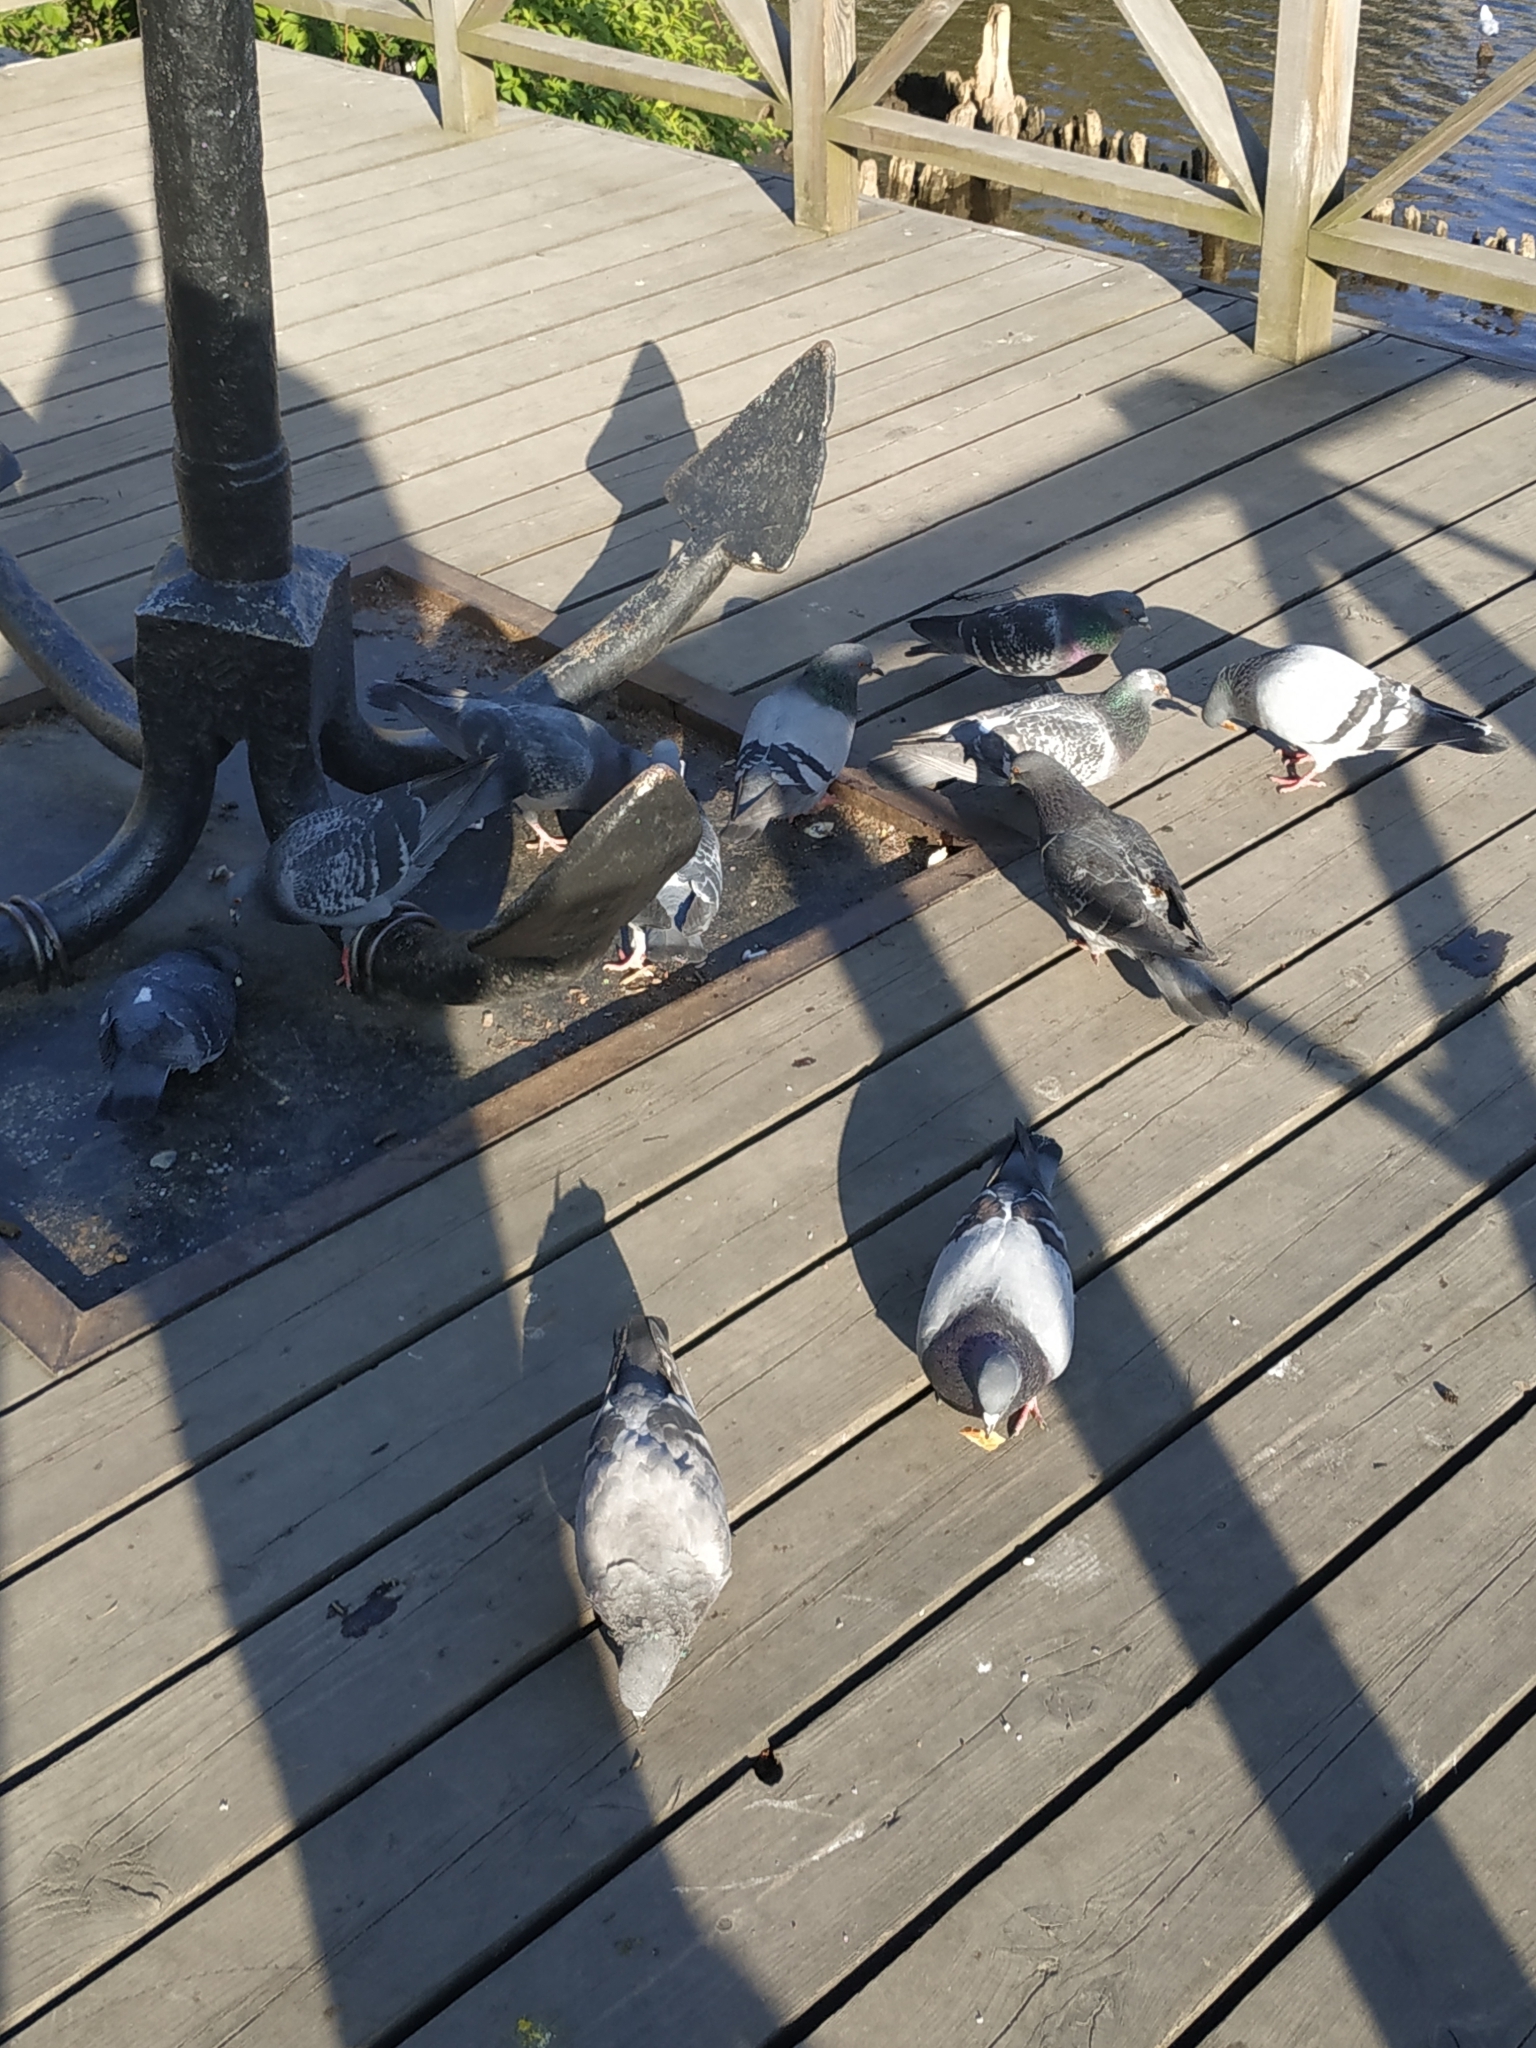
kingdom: Animalia
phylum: Chordata
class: Aves
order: Columbiformes
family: Columbidae
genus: Columba
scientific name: Columba livia
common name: Rock pigeon
